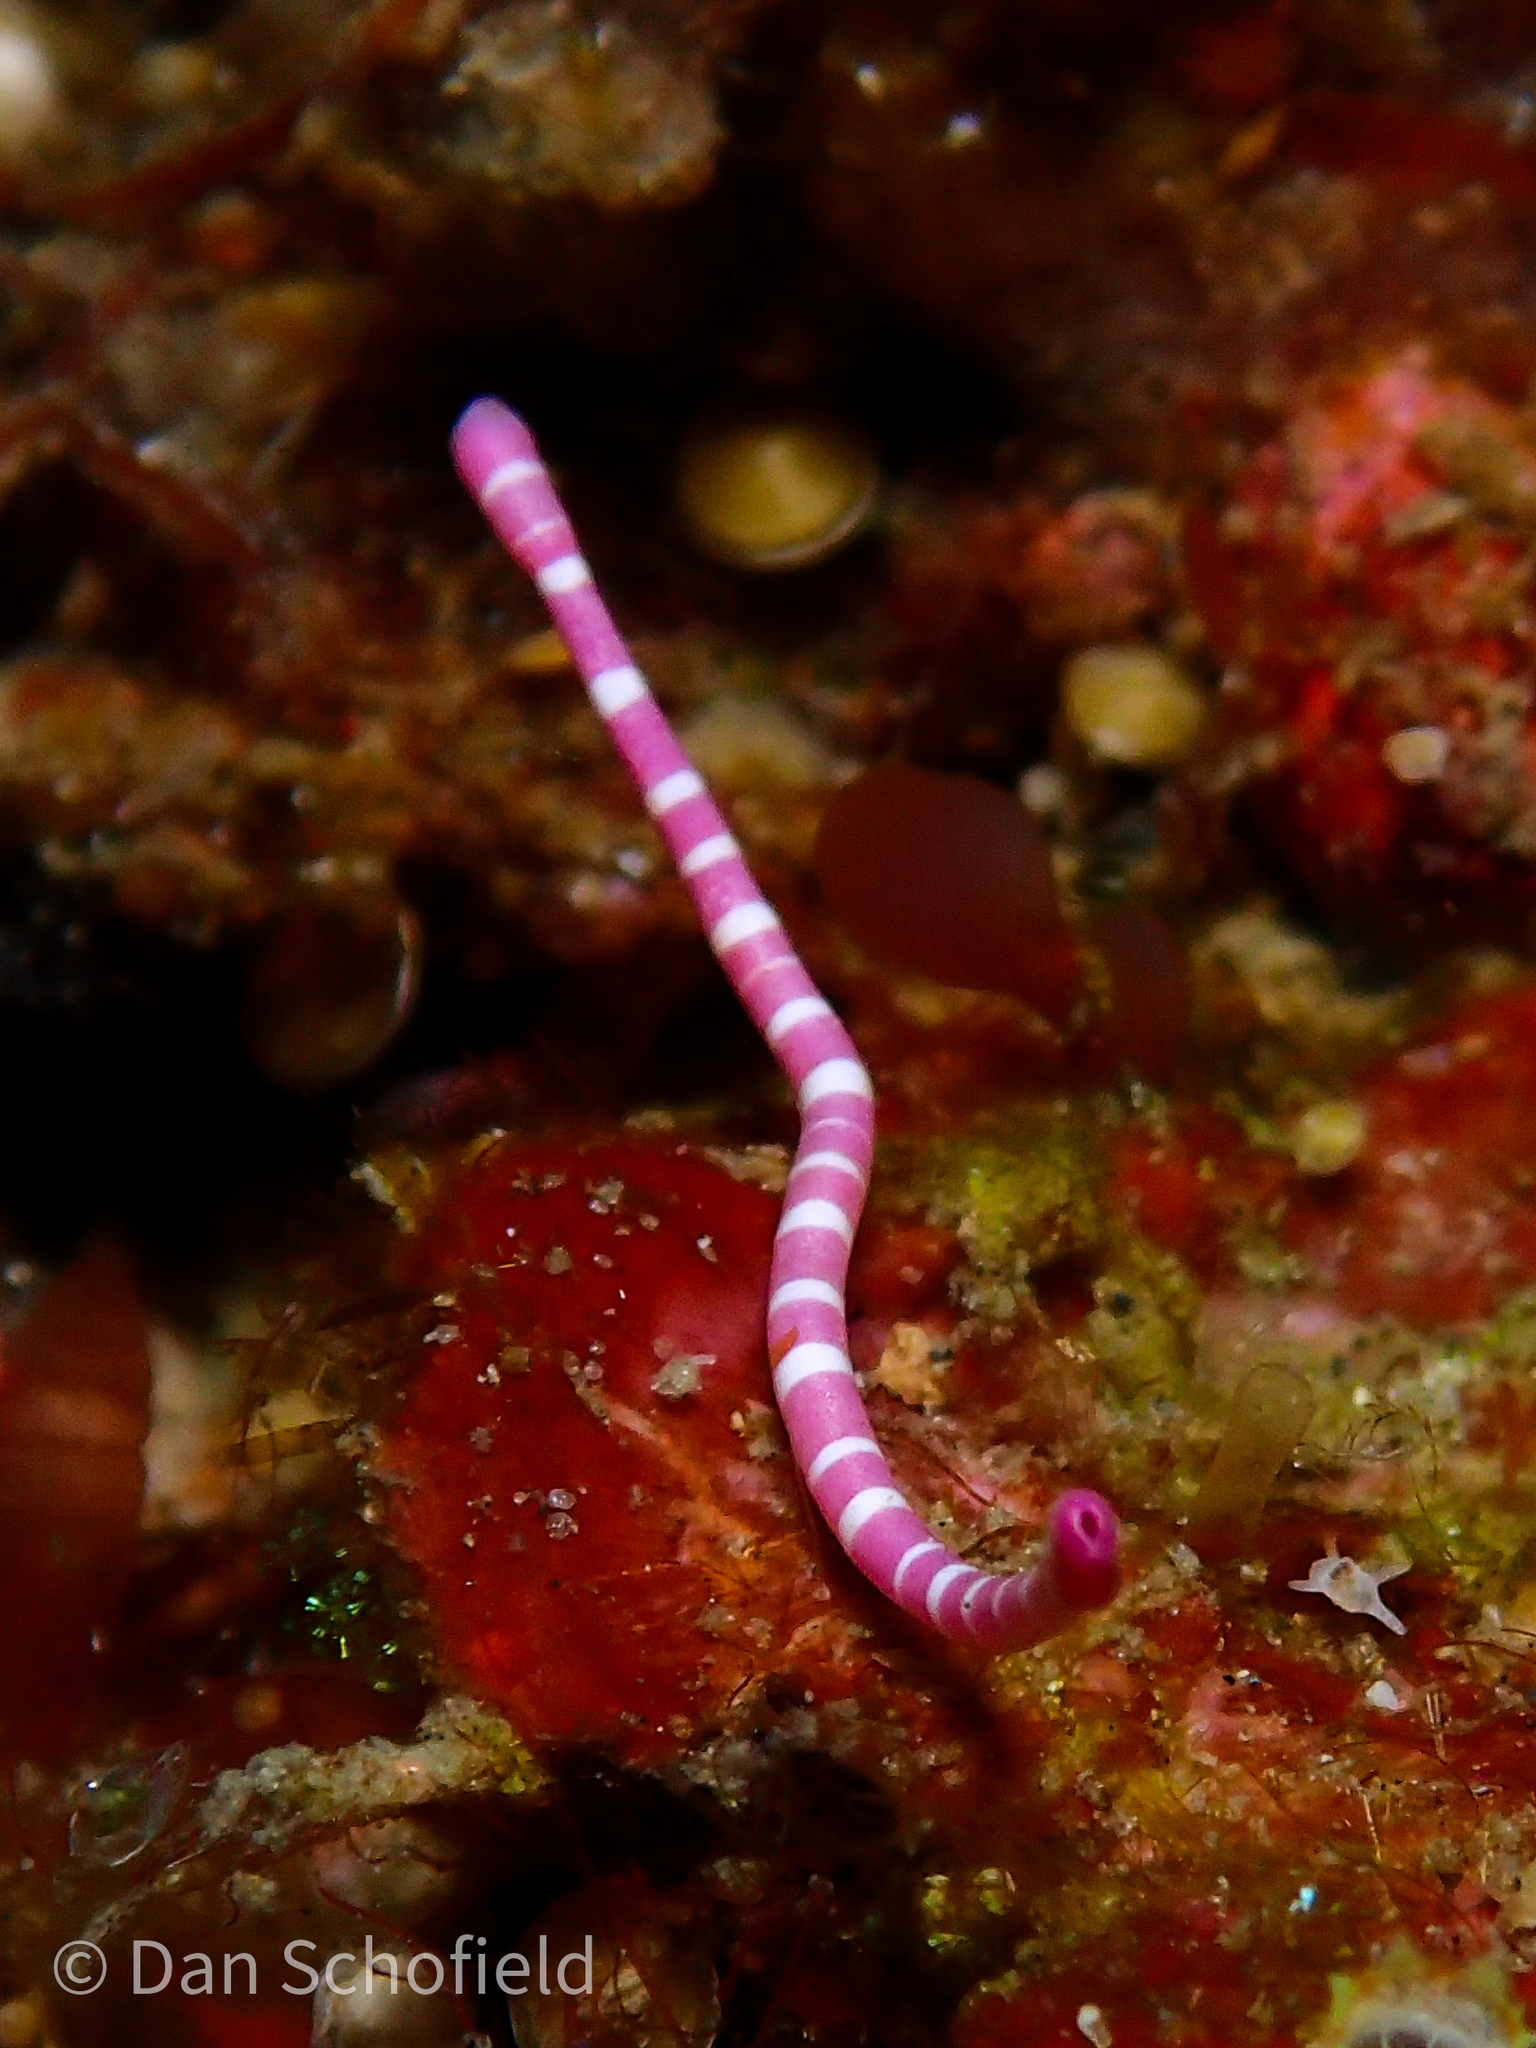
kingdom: Animalia
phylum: Mollusca
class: Solenogastres
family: Dondersiidae
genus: Dondersia
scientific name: Dondersia annulata
